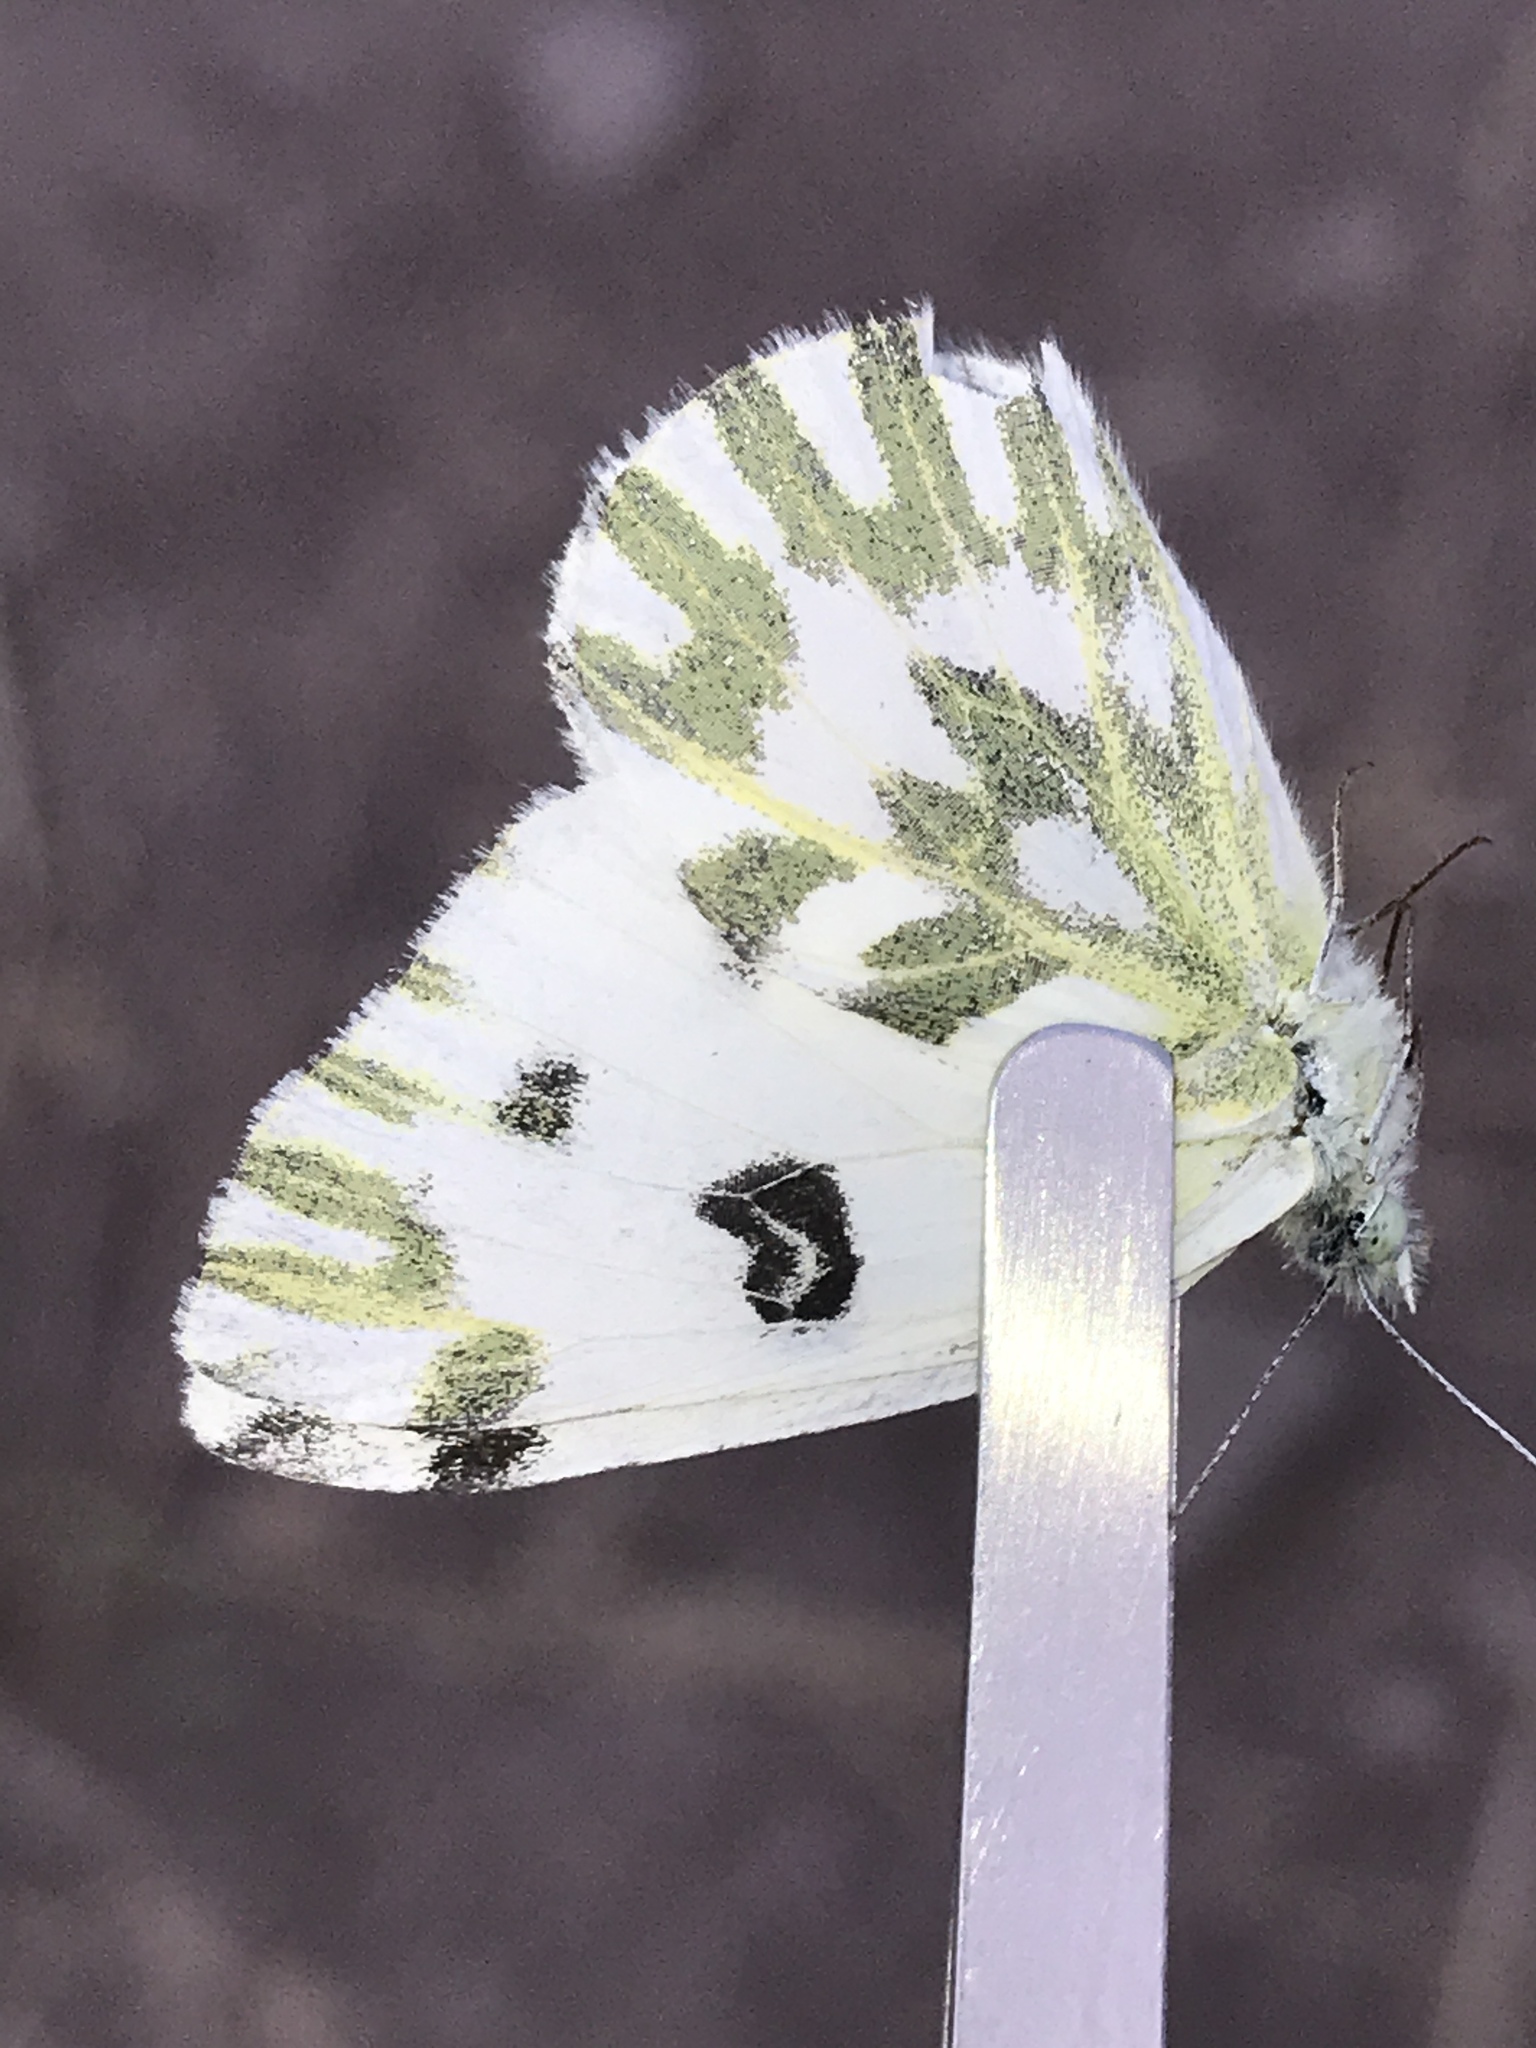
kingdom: Animalia
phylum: Arthropoda
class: Insecta
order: Lepidoptera
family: Pieridae
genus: Pontia
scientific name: Pontia beckerii
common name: Becker's white
